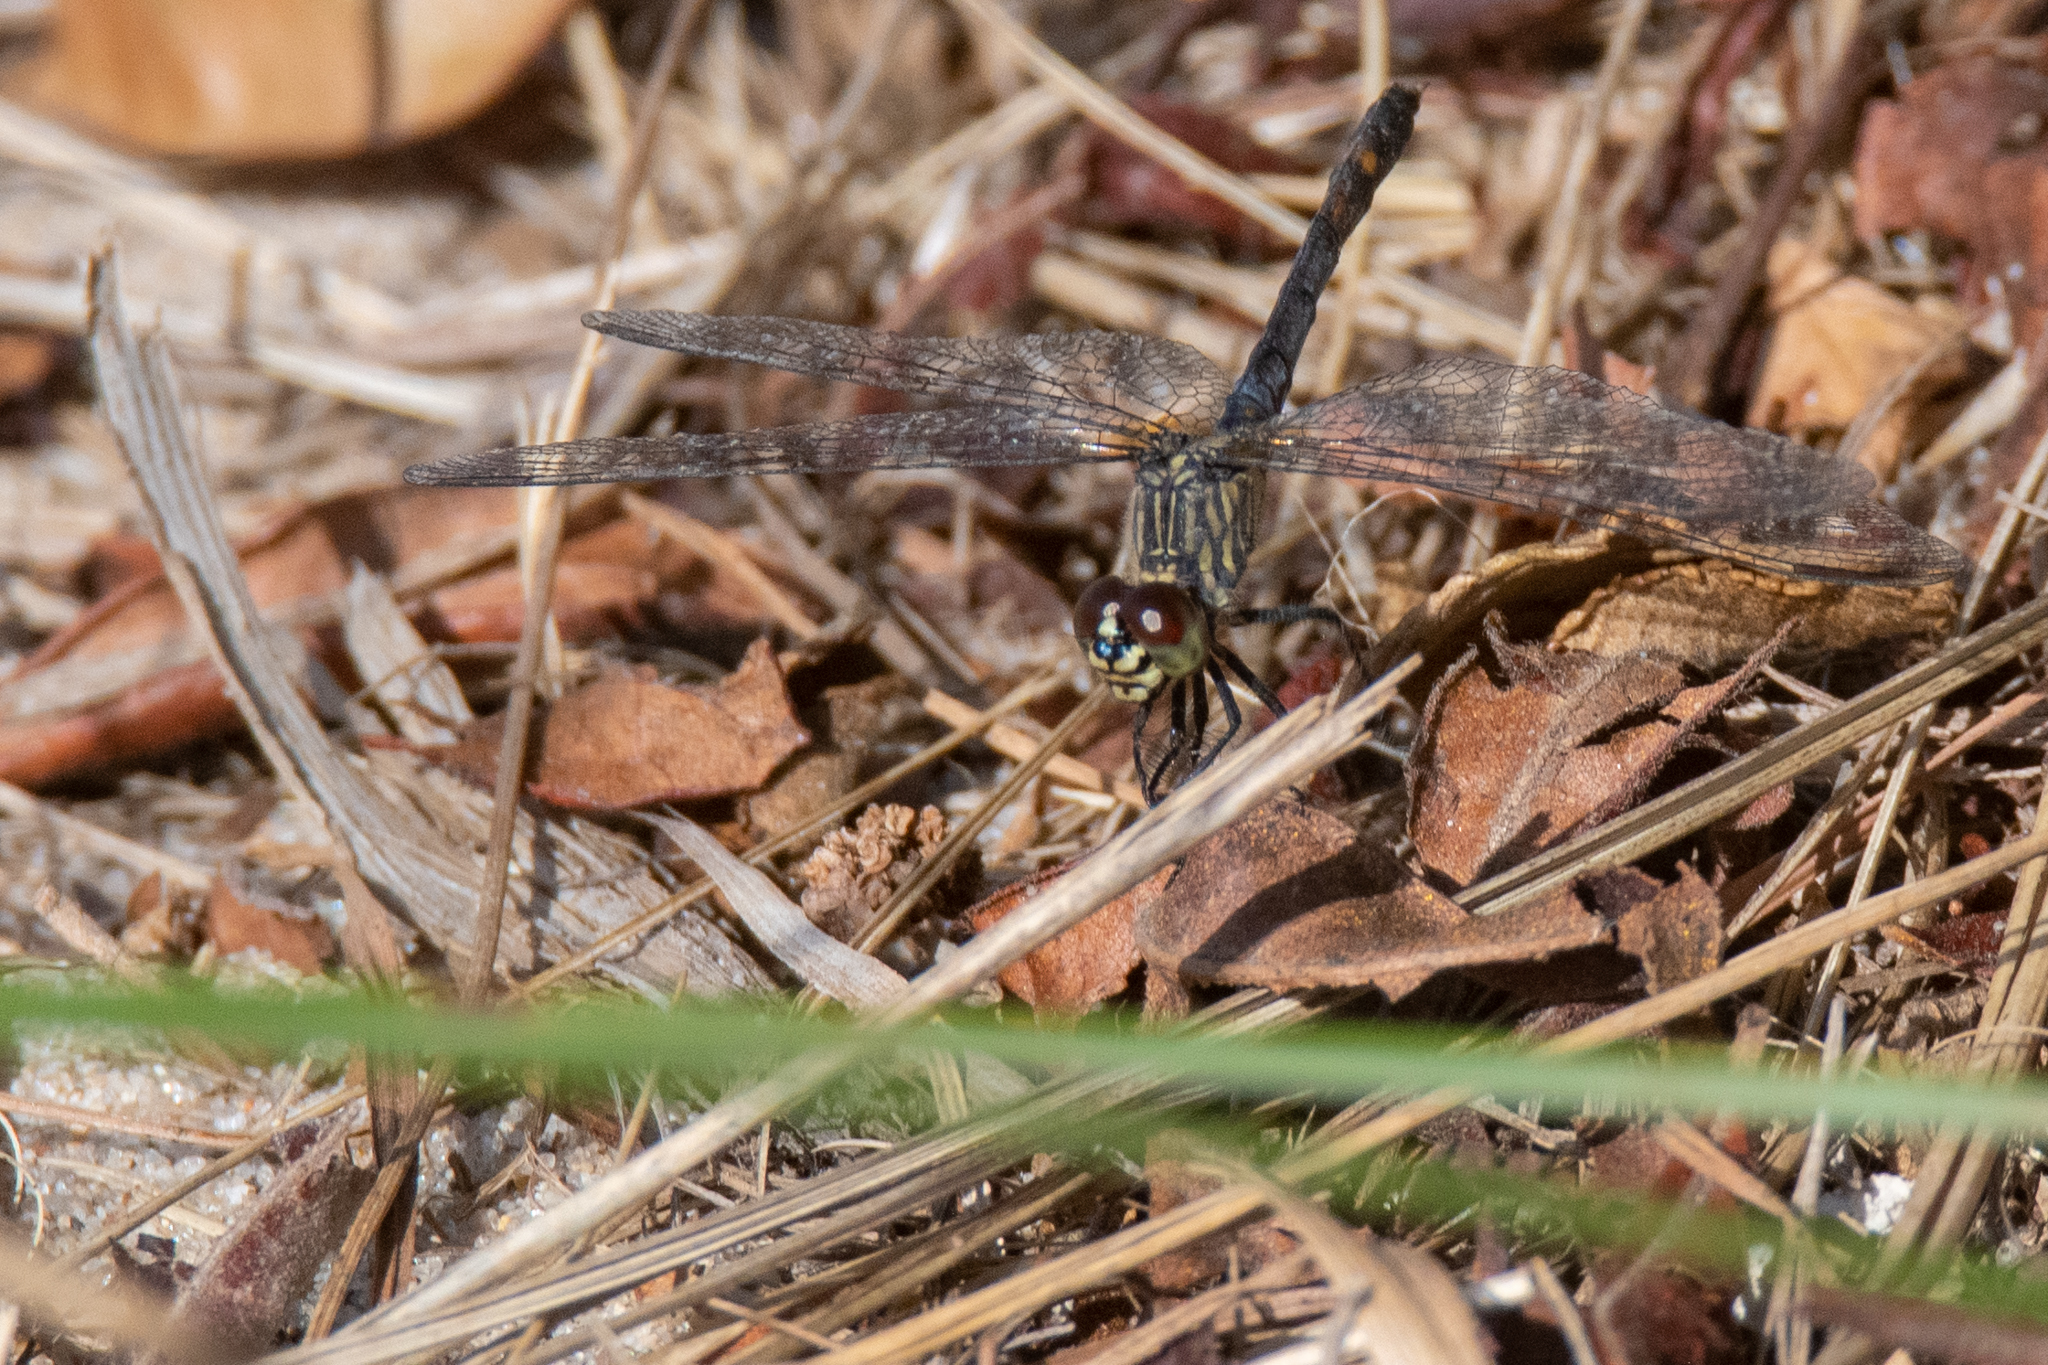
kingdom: Animalia
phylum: Arthropoda
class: Insecta
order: Odonata
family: Libellulidae
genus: Erythrodiplax
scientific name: Erythrodiplax berenice
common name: Seaside dragonlet
